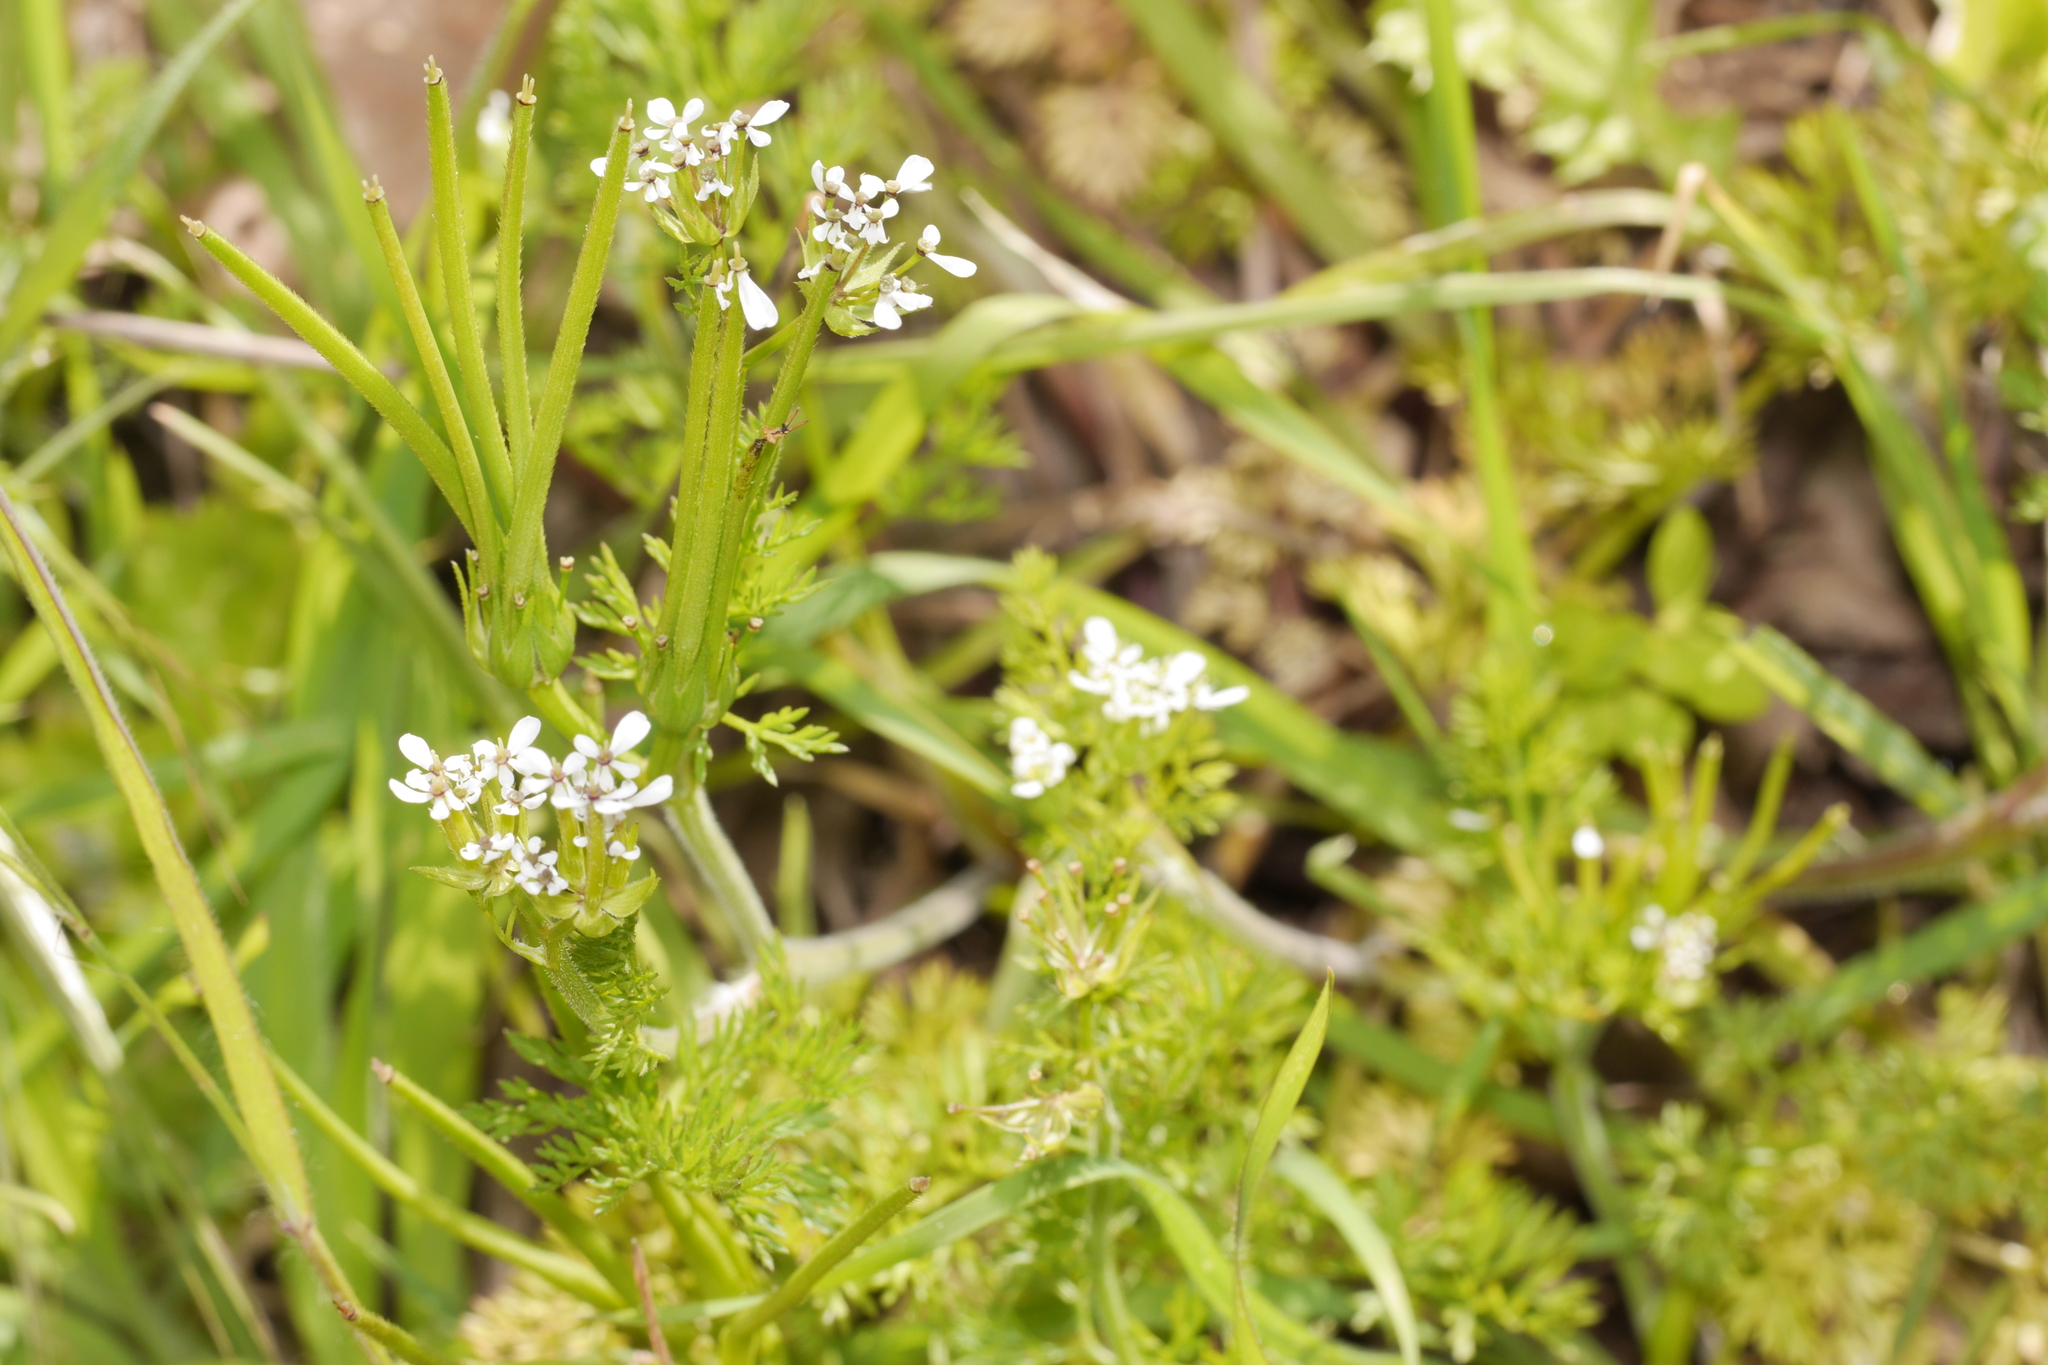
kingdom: Plantae
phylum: Tracheophyta
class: Magnoliopsida
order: Apiales
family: Apiaceae
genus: Scandix
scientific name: Scandix pecten-veneris
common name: Shepherd's-needle
